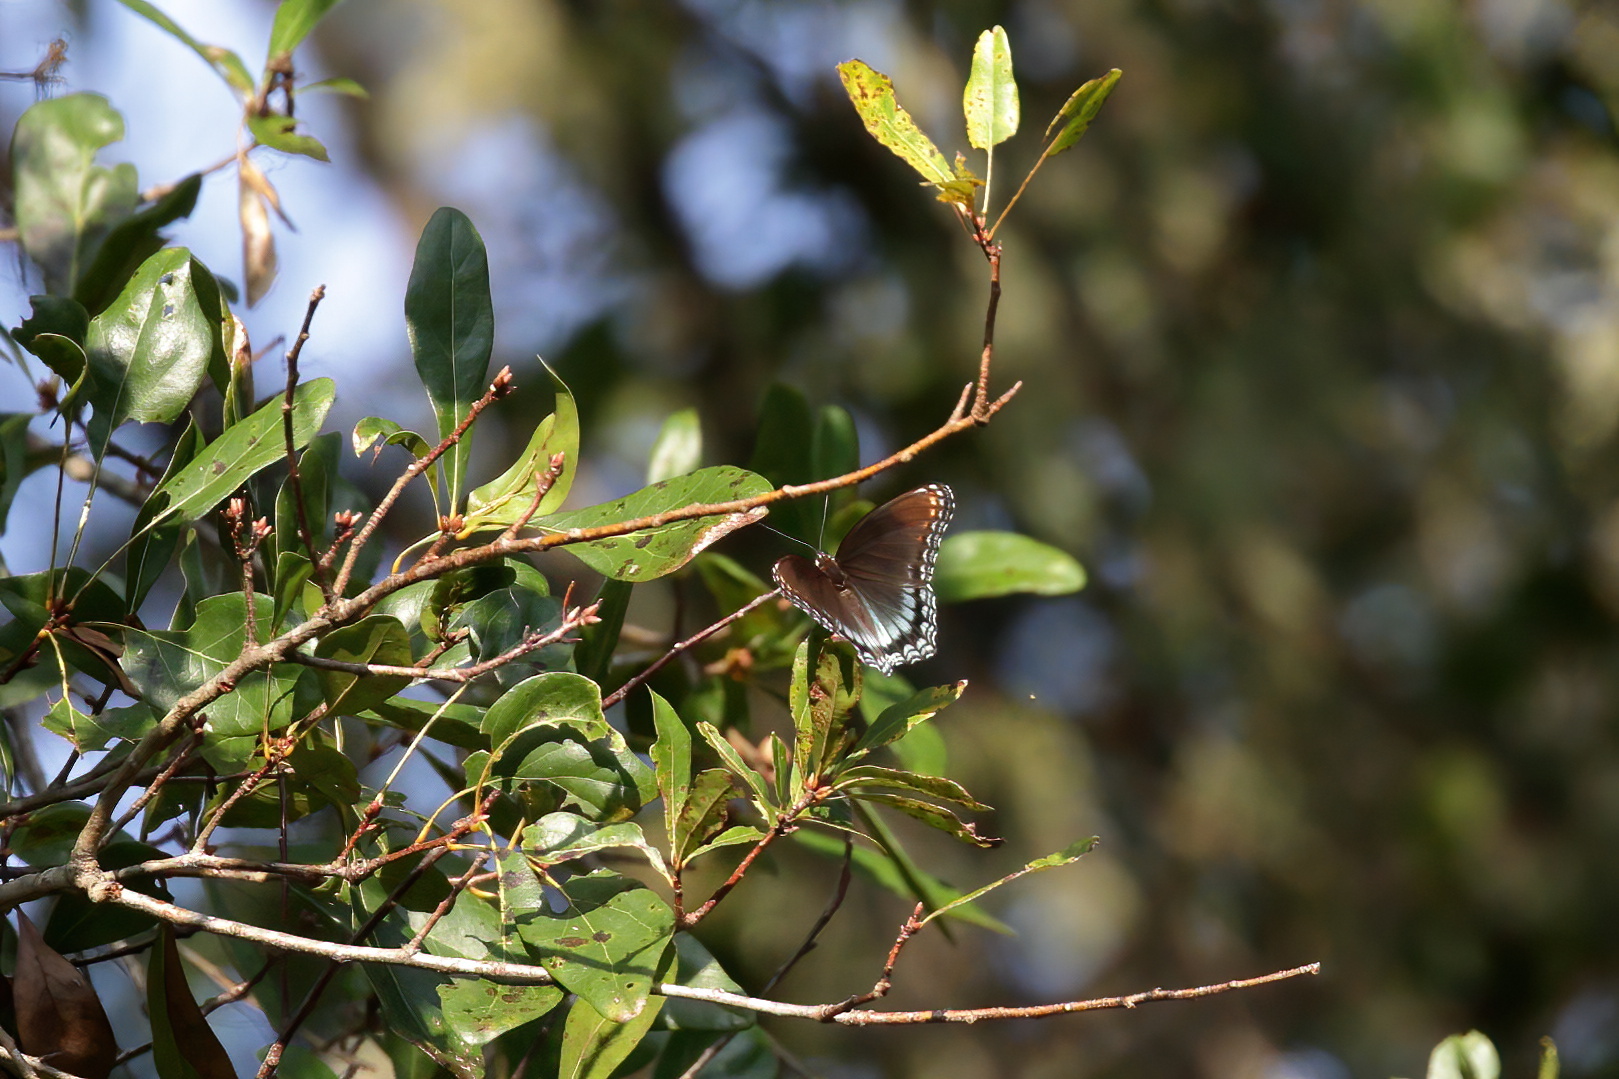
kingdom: Animalia
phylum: Arthropoda
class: Insecta
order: Lepidoptera
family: Nymphalidae
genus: Limenitis
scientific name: Limenitis astyanax
